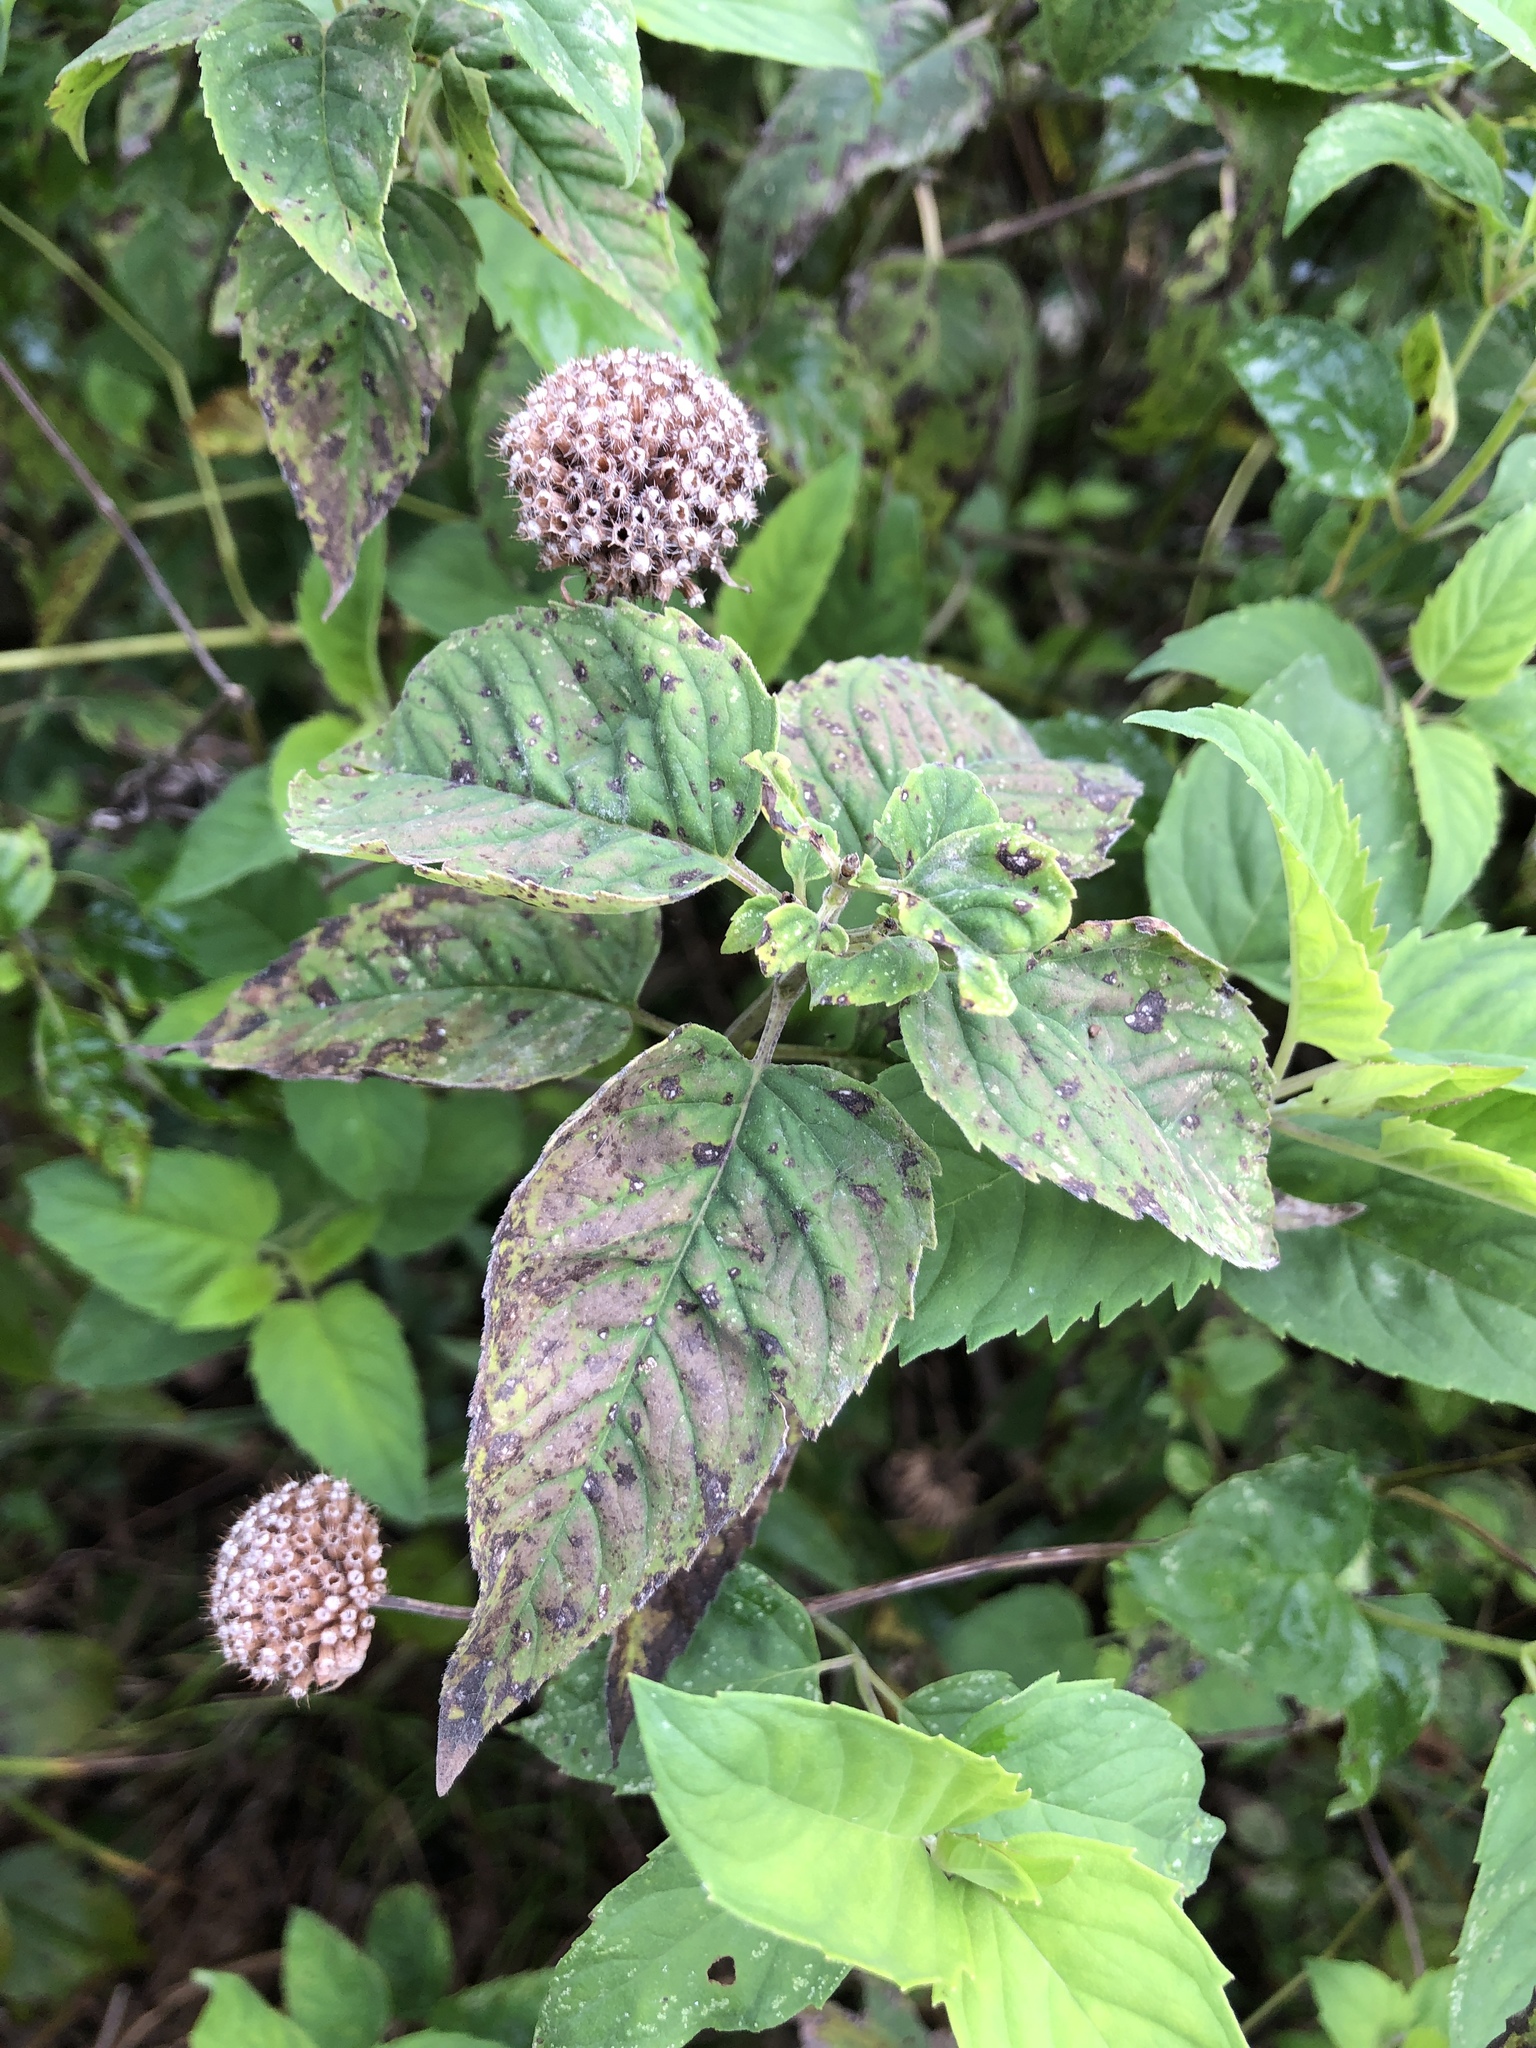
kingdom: Plantae
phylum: Tracheophyta
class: Magnoliopsida
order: Lamiales
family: Lamiaceae
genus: Monarda
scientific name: Monarda fistulosa
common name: Purple beebalm
